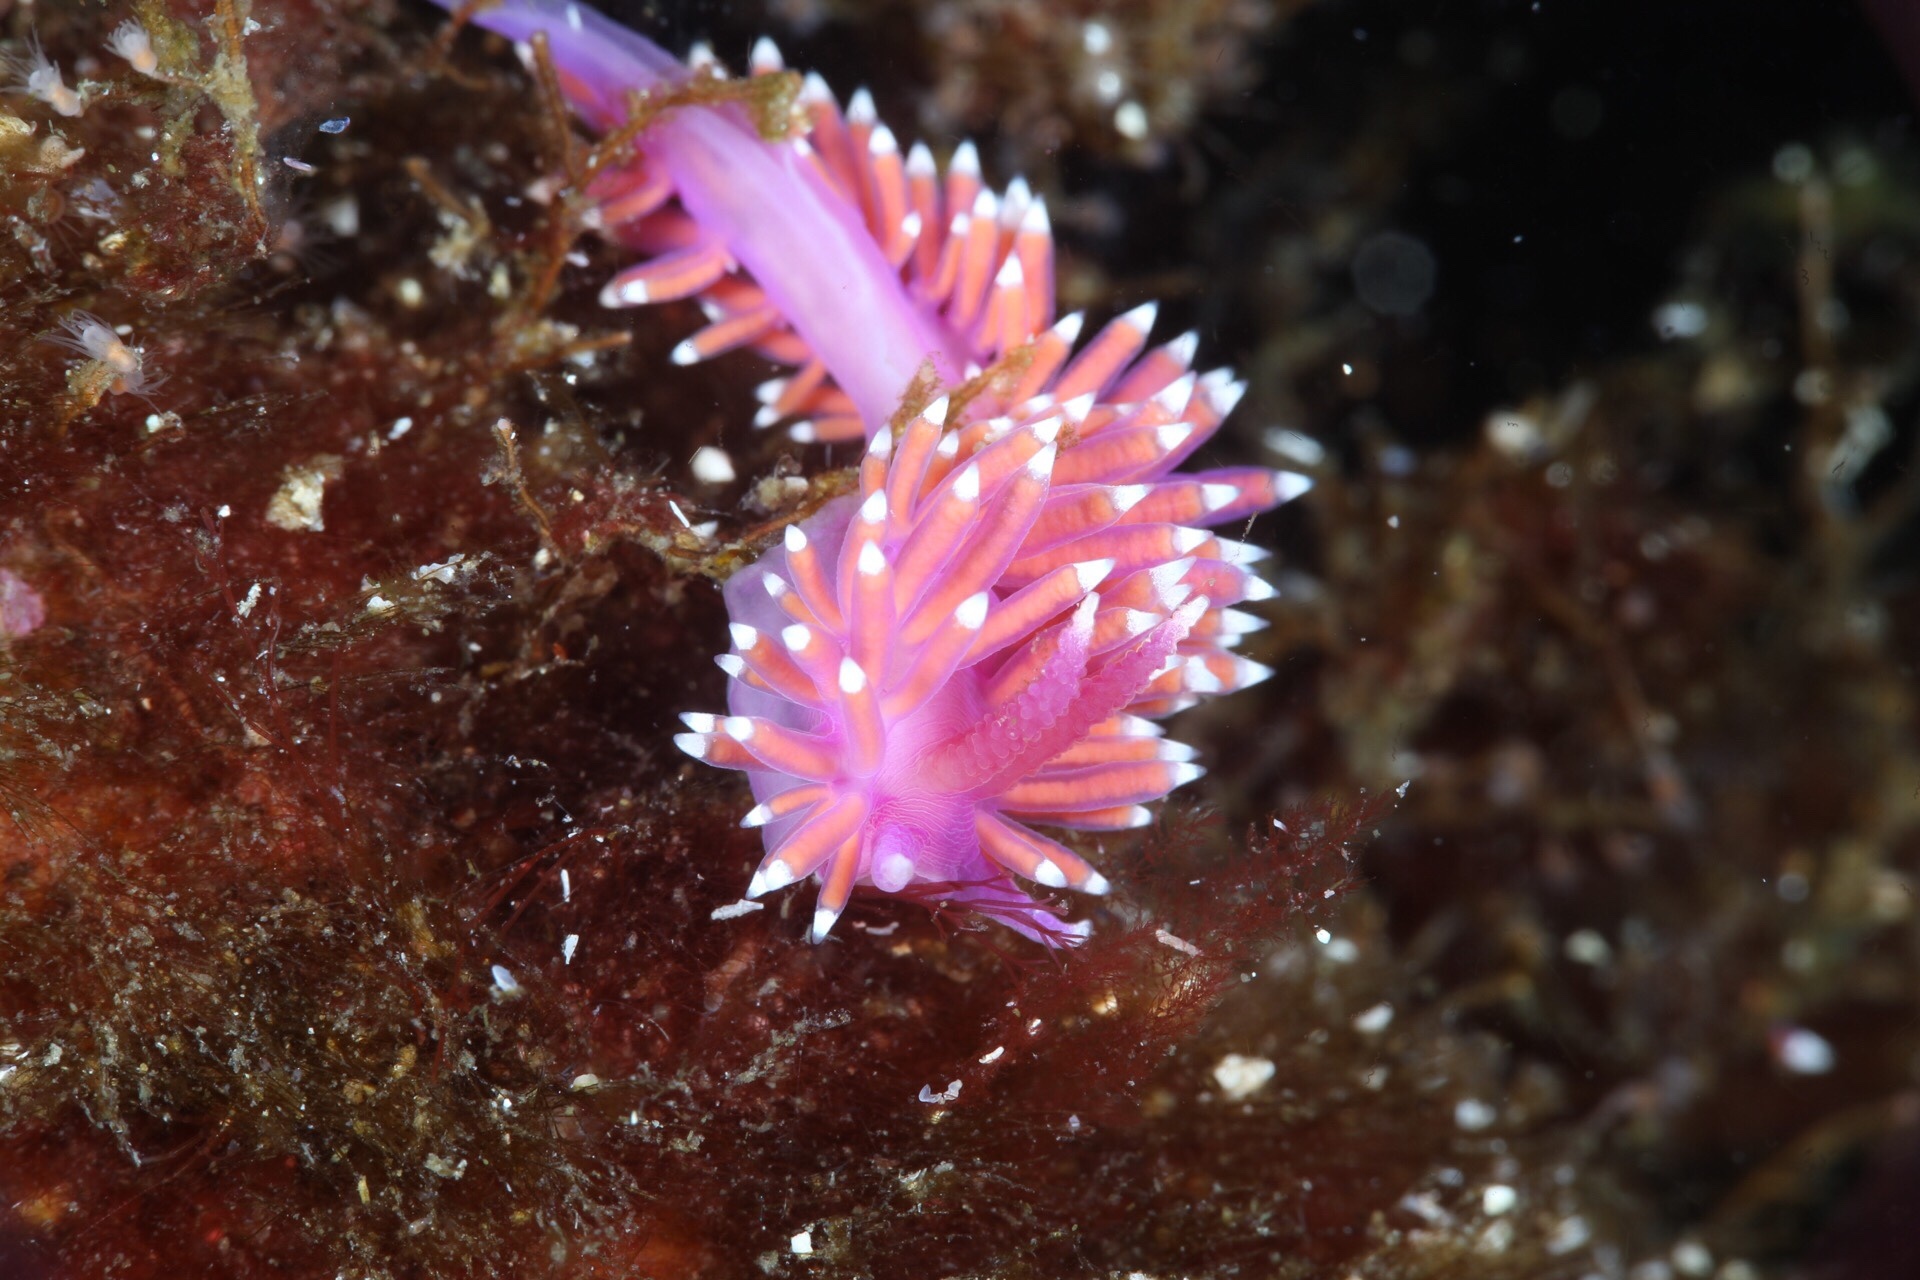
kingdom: Animalia
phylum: Mollusca
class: Gastropoda
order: Nudibranchia
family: Flabellinidae
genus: Edmundsella
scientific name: Edmundsella pedata
